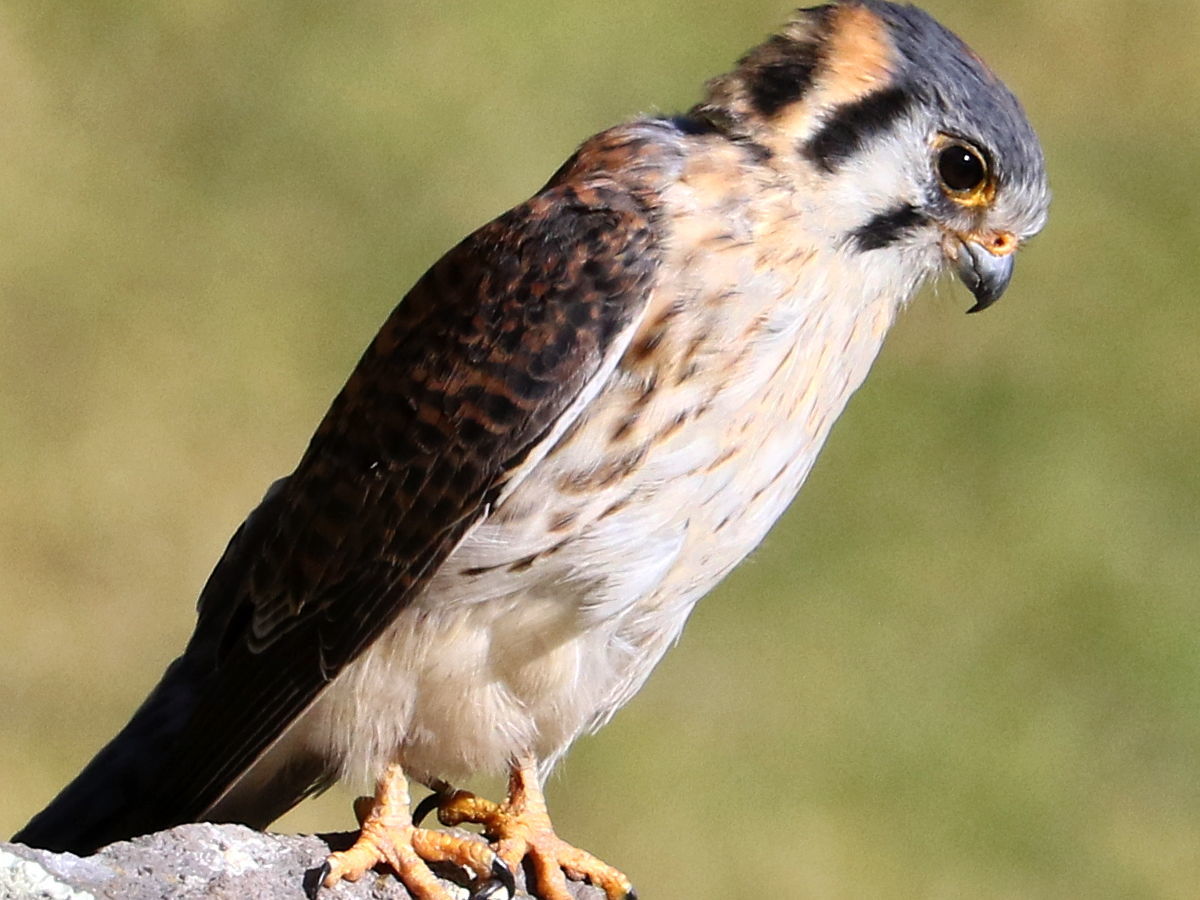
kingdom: Animalia
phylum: Chordata
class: Aves
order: Falconiformes
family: Falconidae
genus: Falco
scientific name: Falco sparverius
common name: American kestrel
